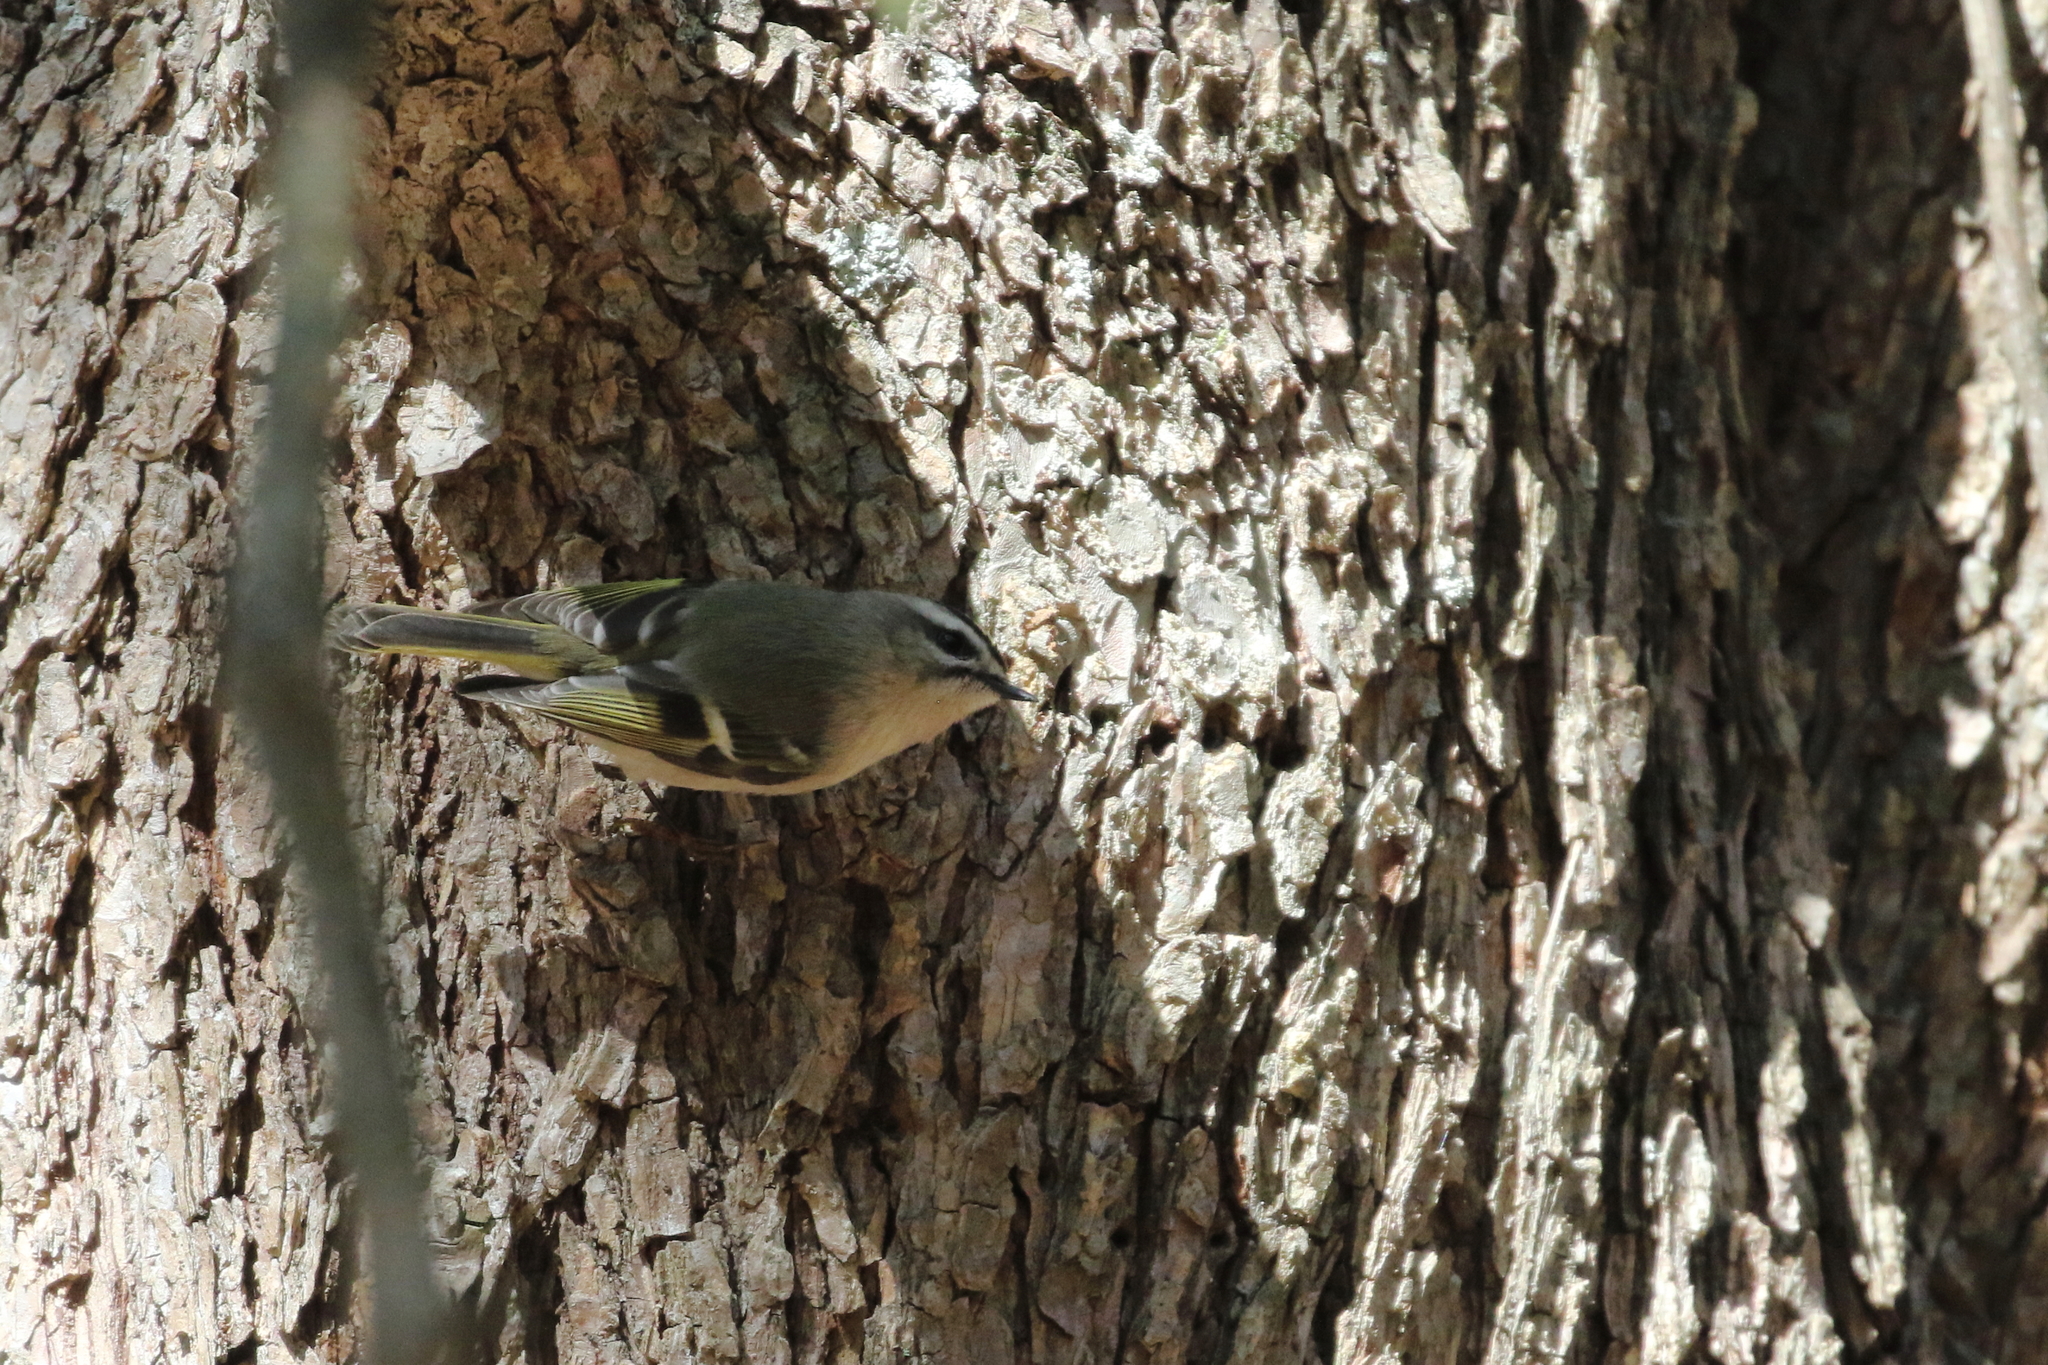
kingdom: Animalia
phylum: Chordata
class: Aves
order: Passeriformes
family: Regulidae
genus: Regulus
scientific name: Regulus satrapa
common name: Golden-crowned kinglet
